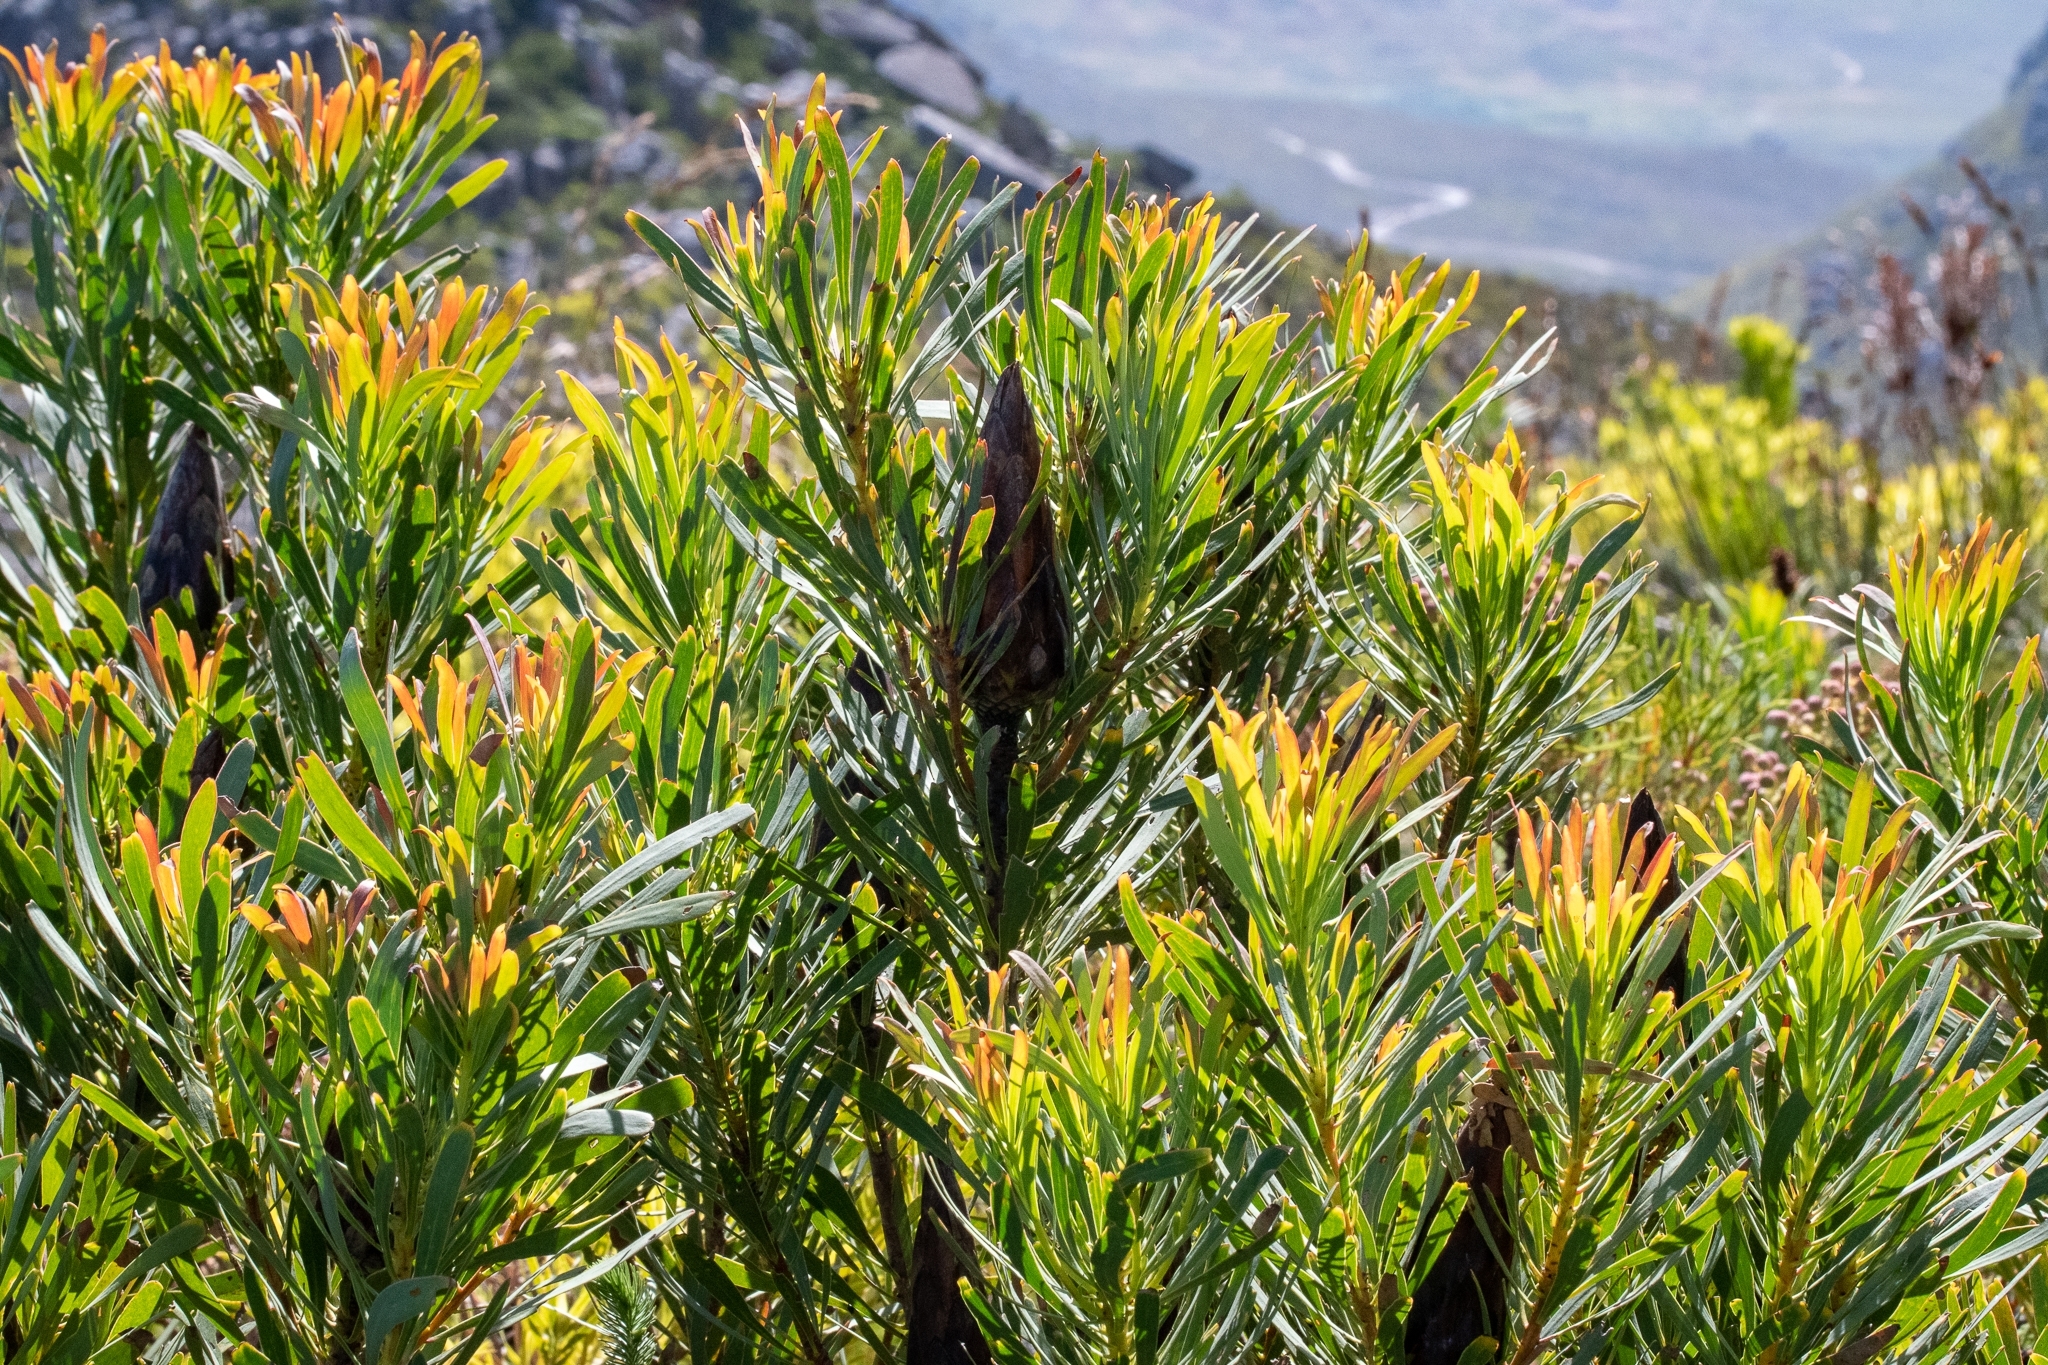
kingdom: Plantae
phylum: Tracheophyta
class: Magnoliopsida
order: Proteales
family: Proteaceae
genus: Protea
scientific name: Protea repens
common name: Sugarbush
